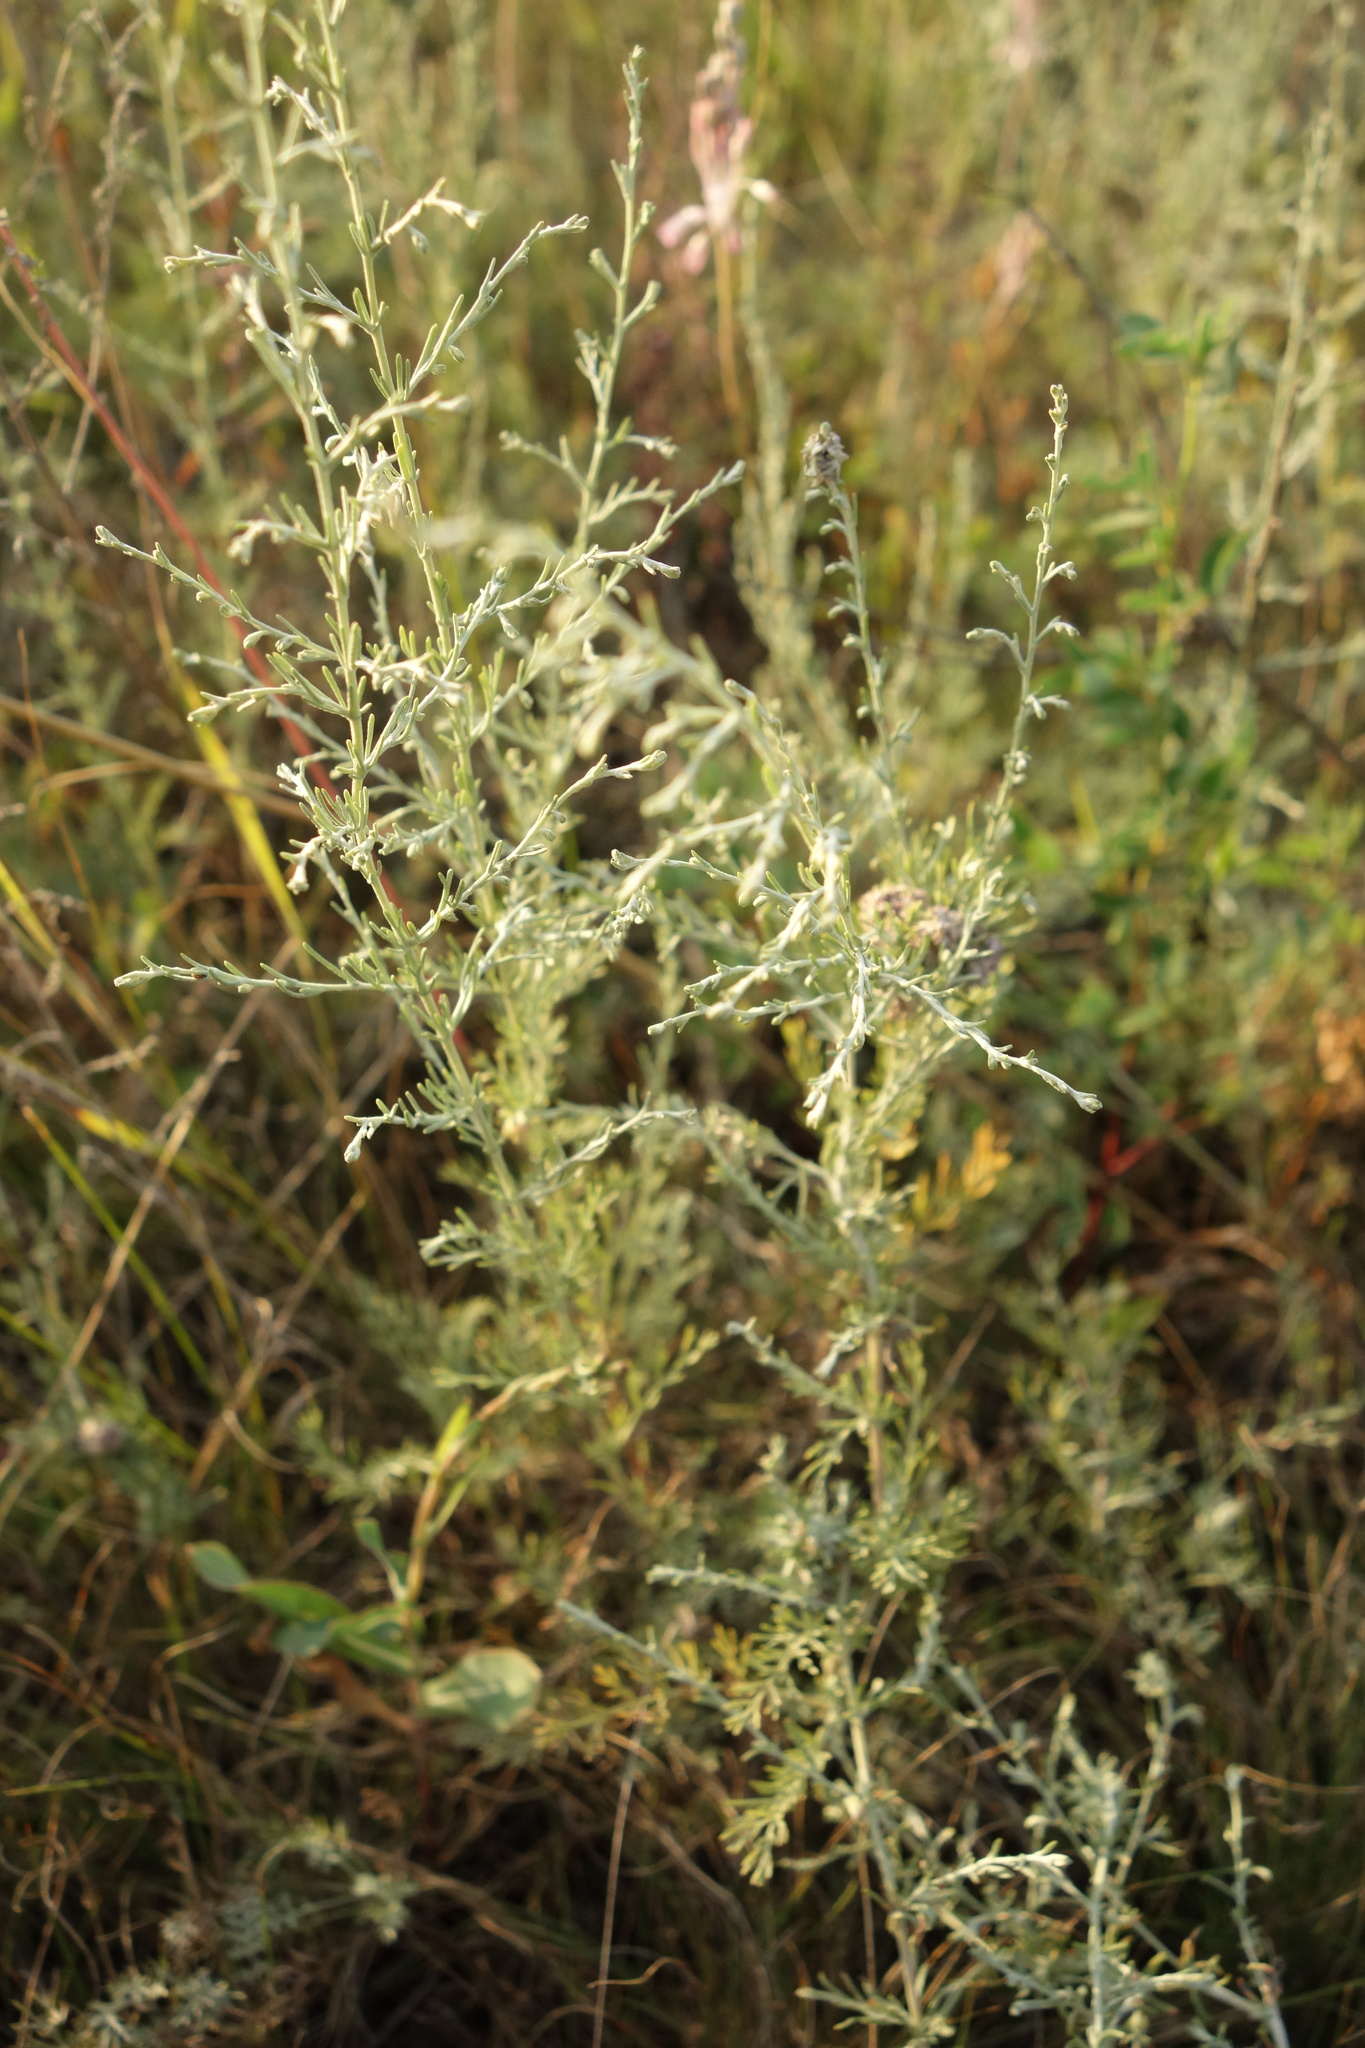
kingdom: Plantae
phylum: Tracheophyta
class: Magnoliopsida
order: Asterales
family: Asteraceae
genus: Artemisia
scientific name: Artemisia santonicum
